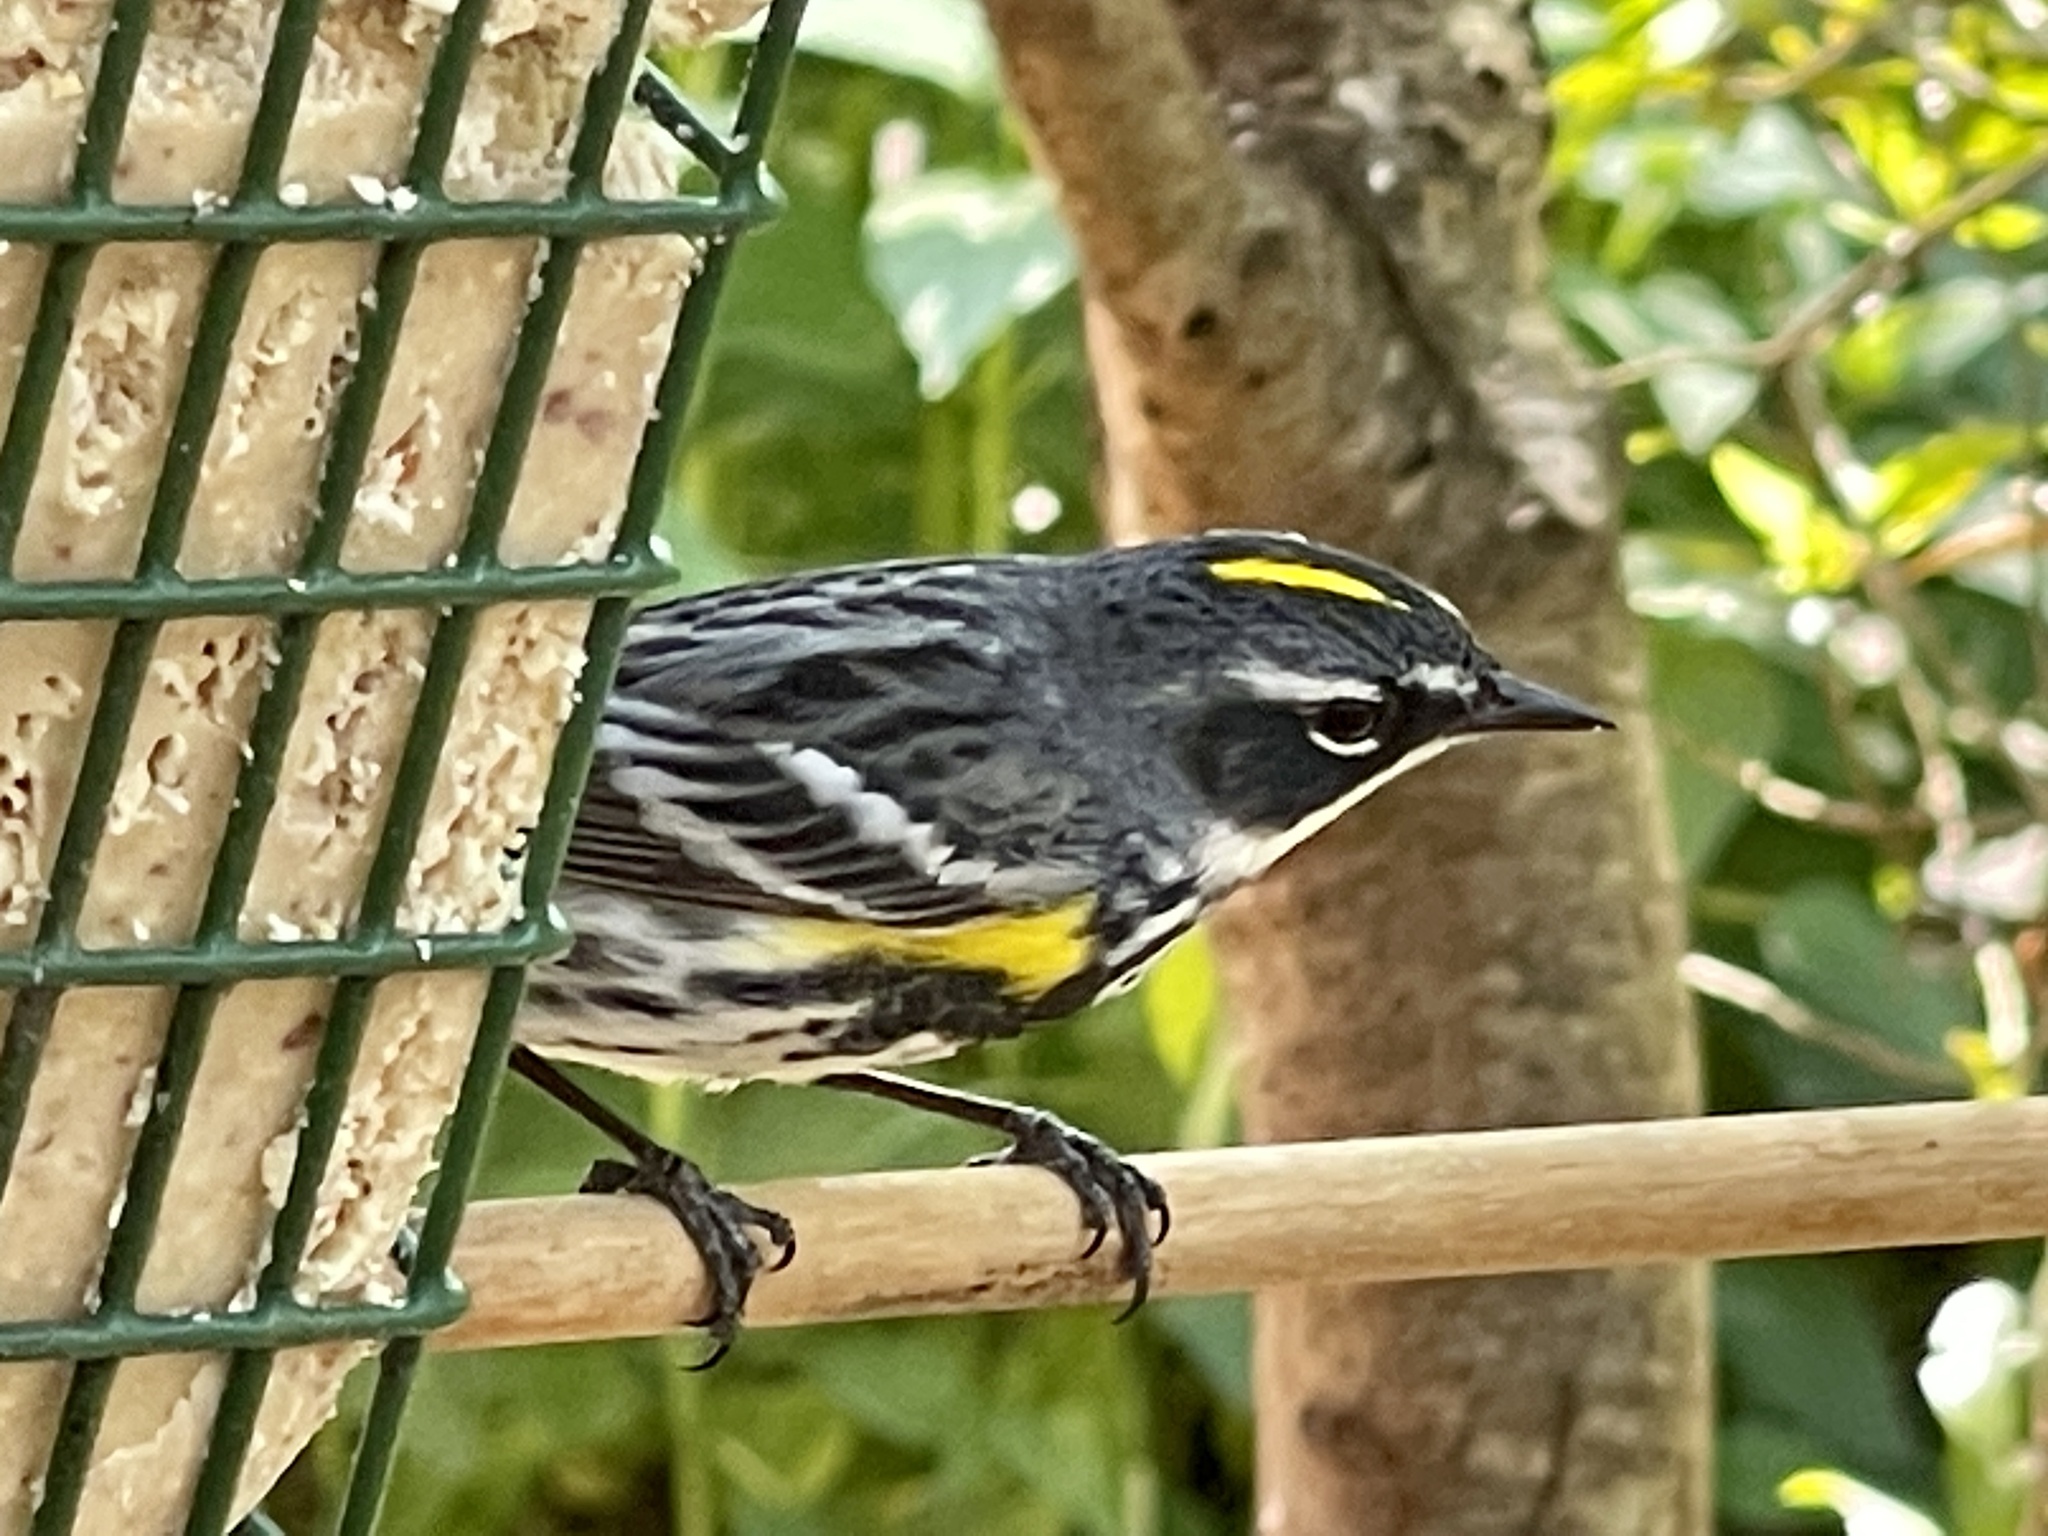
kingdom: Animalia
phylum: Chordata
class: Aves
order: Passeriformes
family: Parulidae
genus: Setophaga
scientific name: Setophaga coronata
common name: Myrtle warbler
